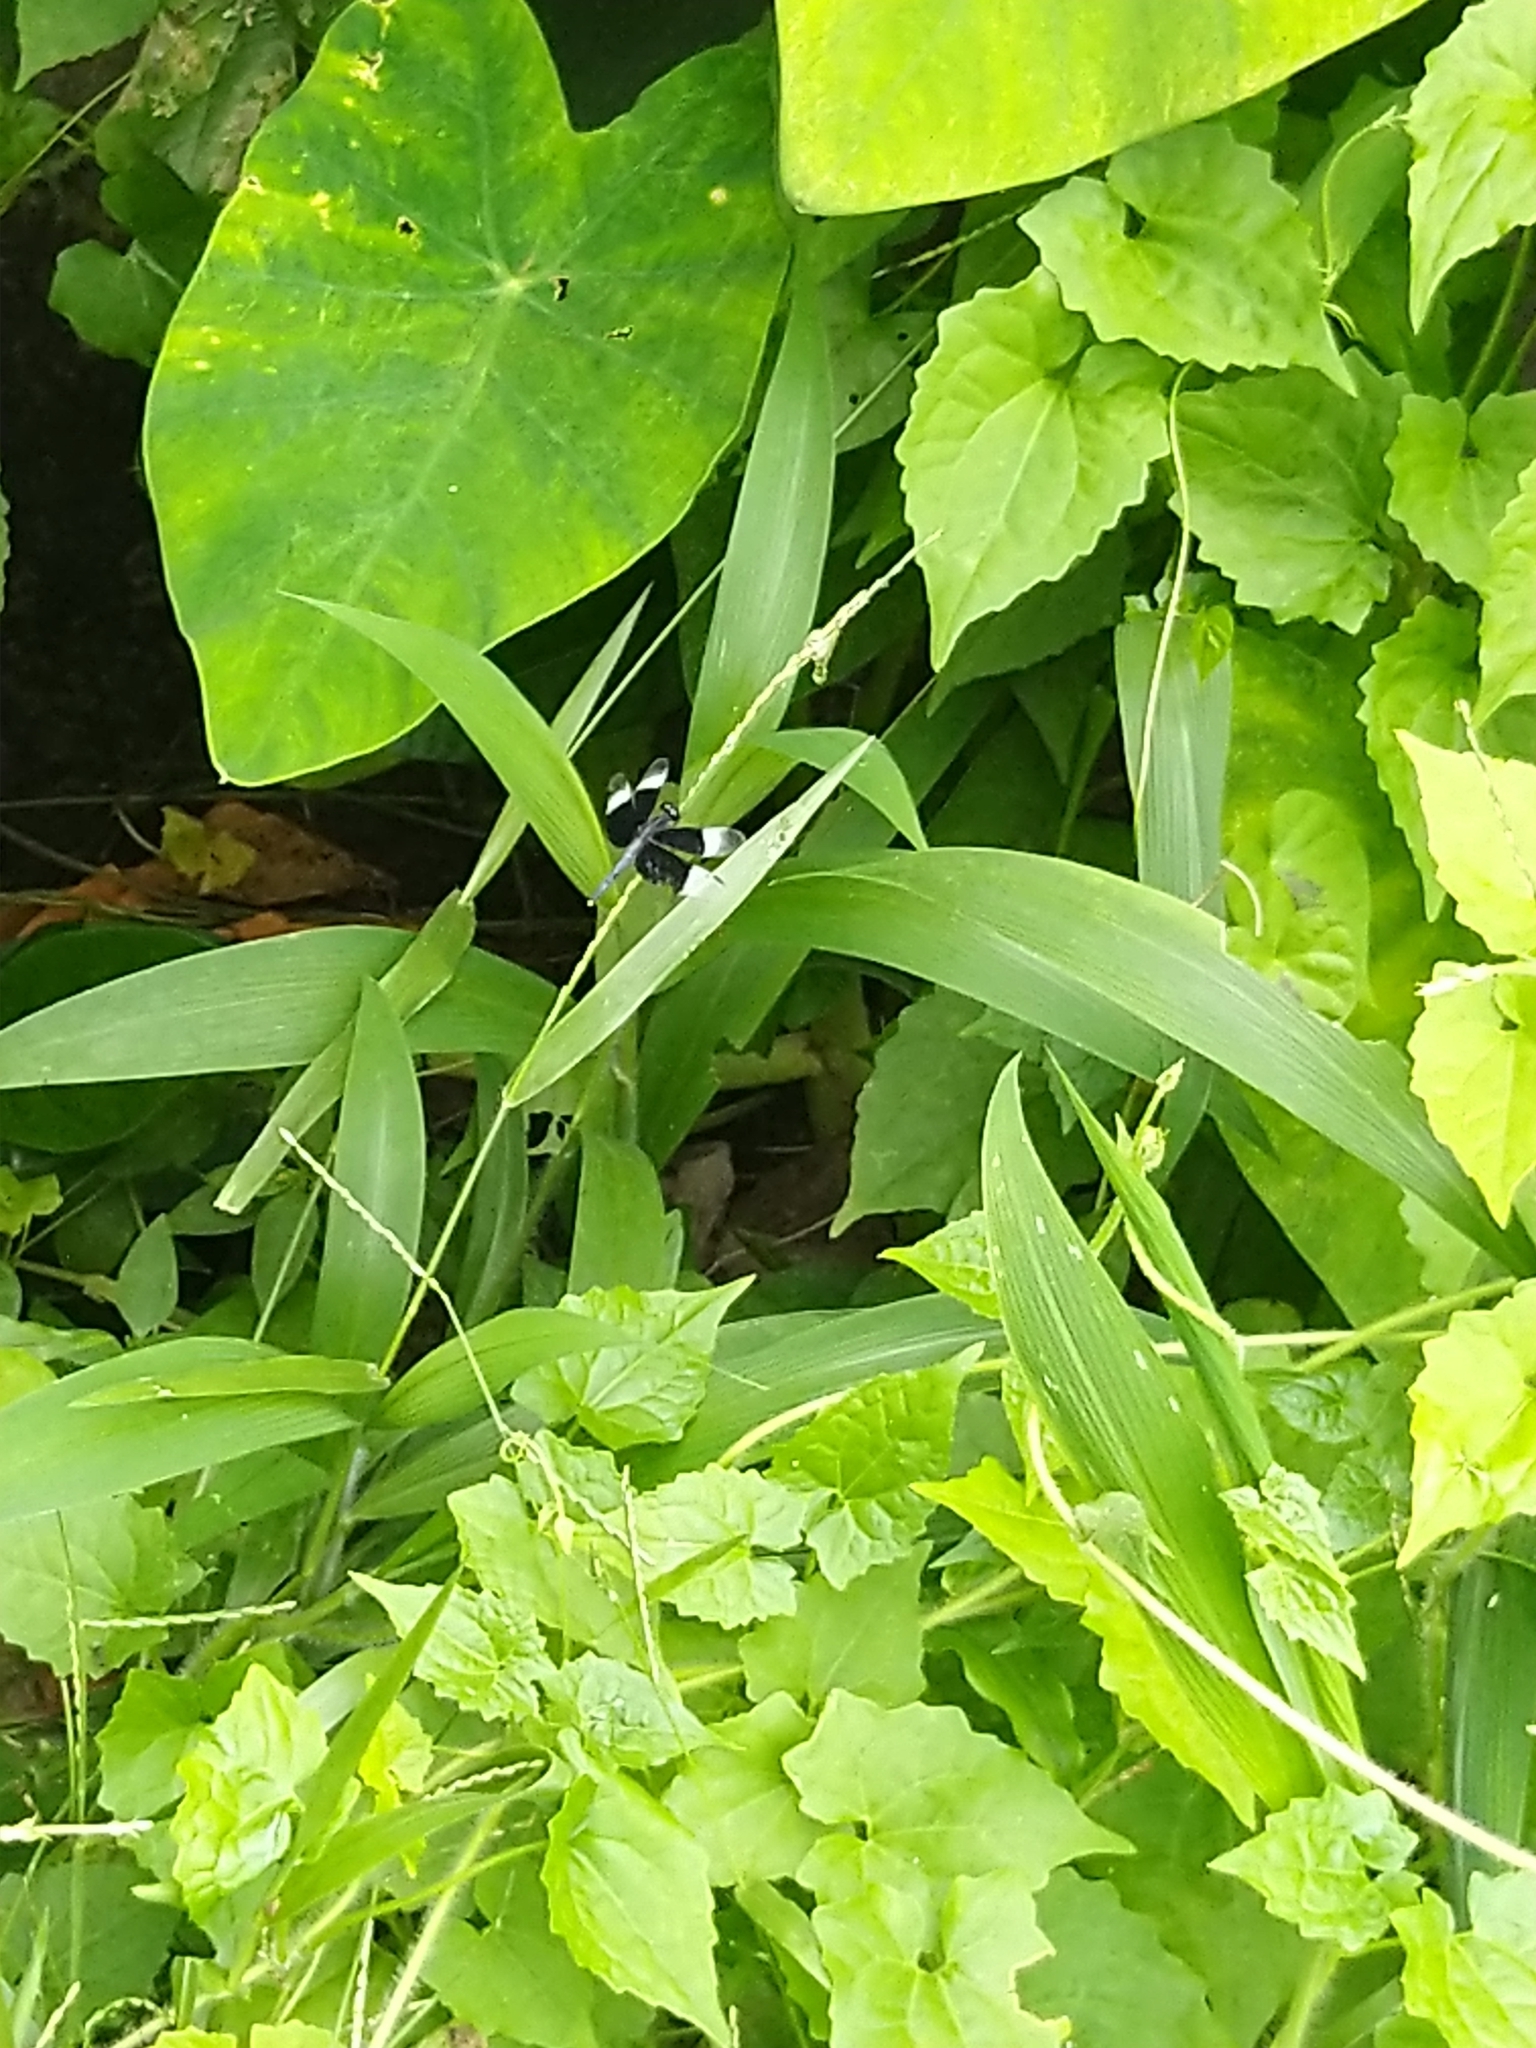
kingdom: Animalia
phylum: Arthropoda
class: Insecta
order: Odonata
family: Libellulidae
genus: Neurothemis
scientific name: Neurothemis tullia
